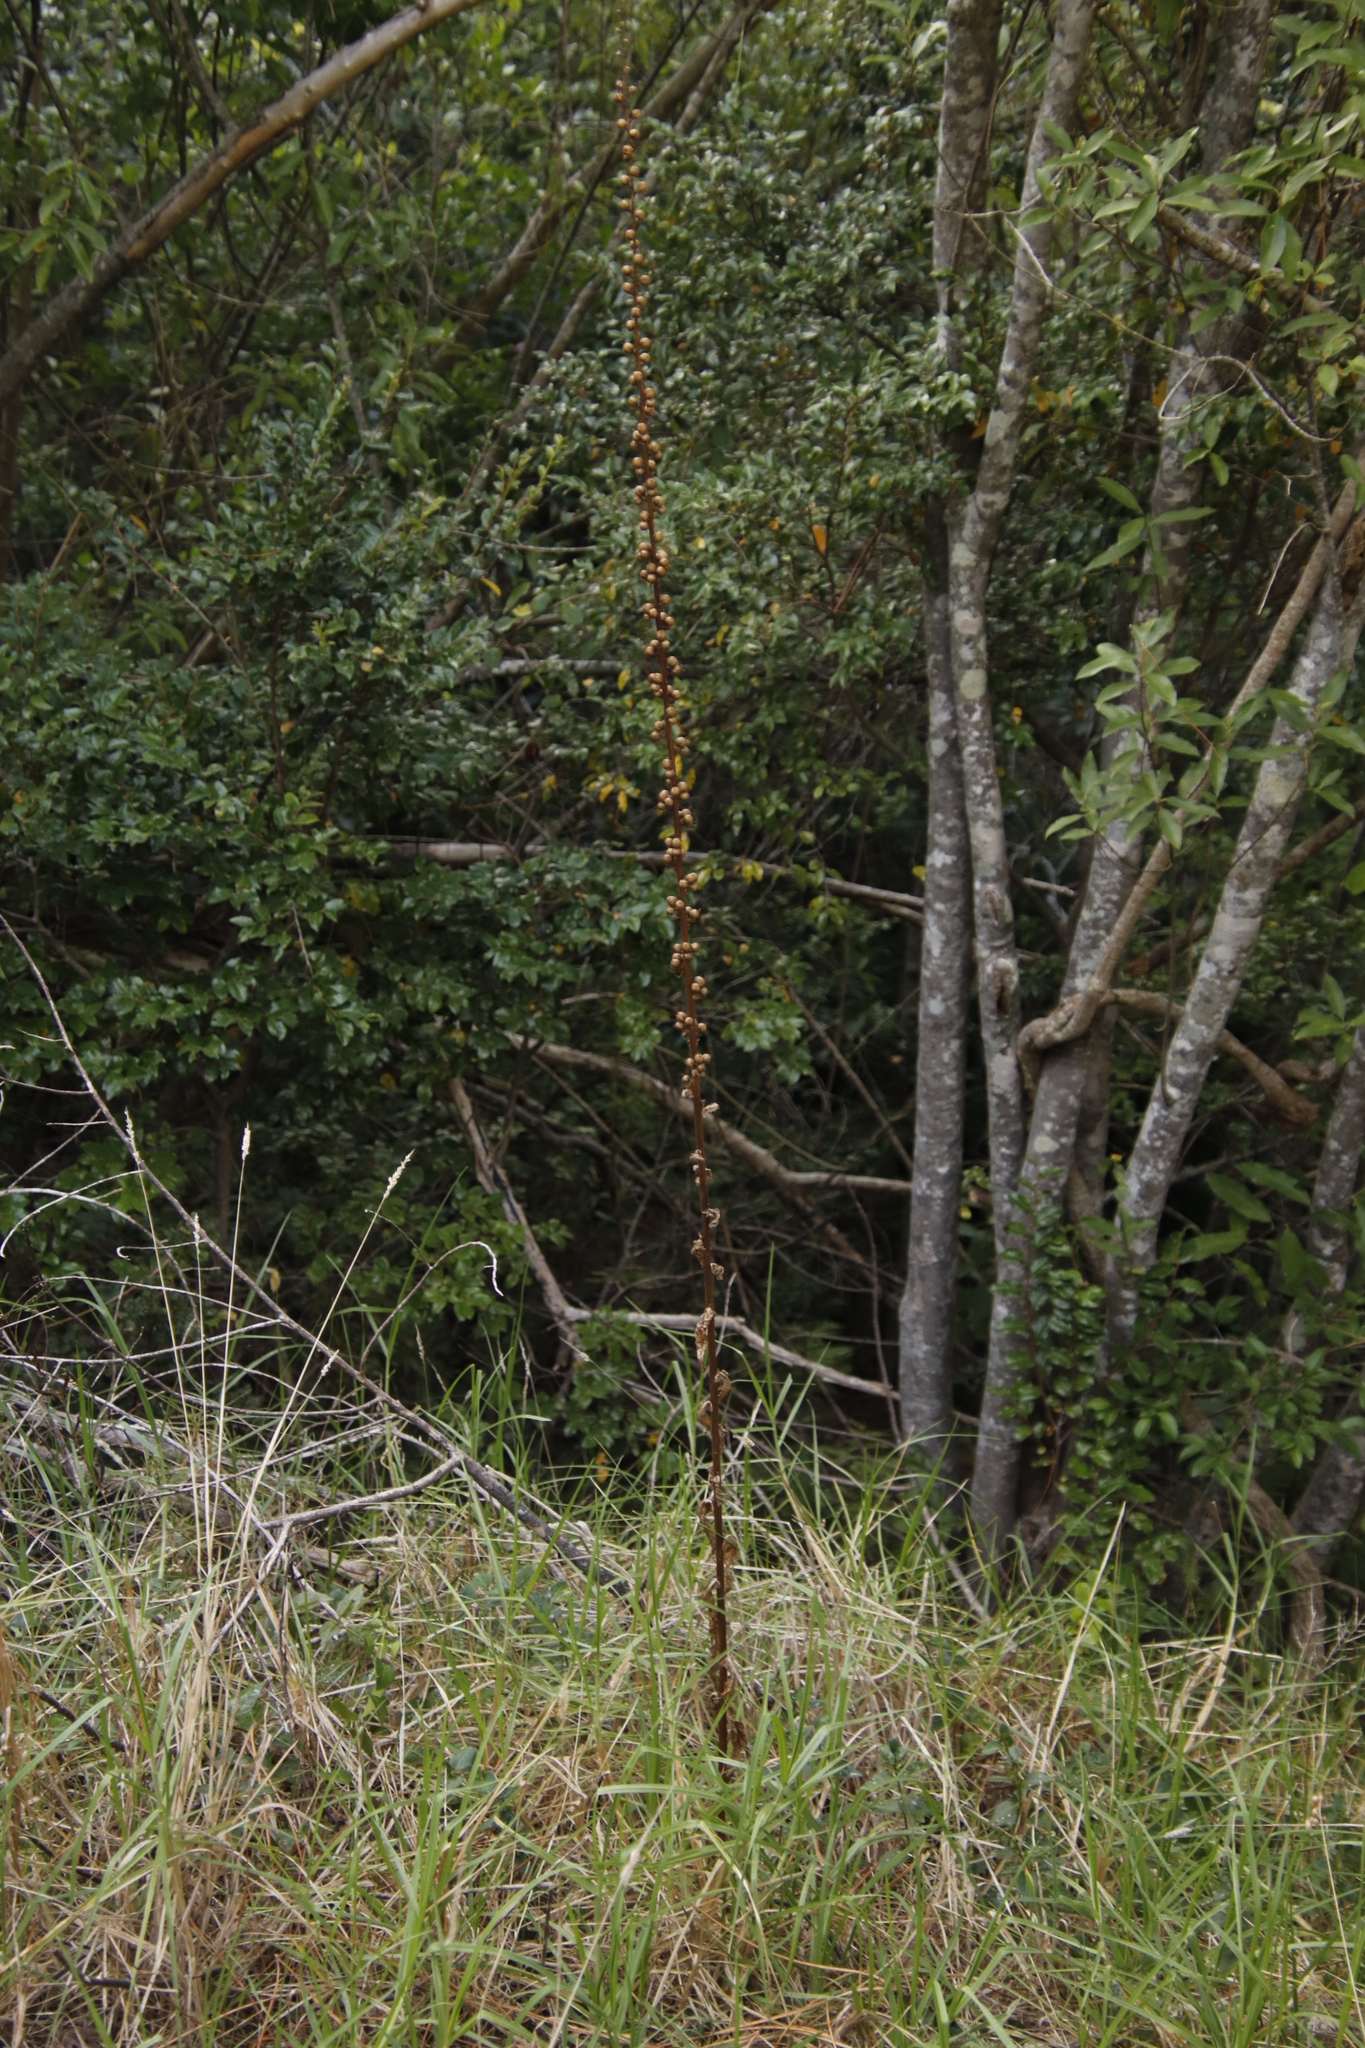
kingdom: Plantae
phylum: Tracheophyta
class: Magnoliopsida
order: Lamiales
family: Scrophulariaceae
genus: Verbascum
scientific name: Verbascum virgatum
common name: Twiggy mullein
